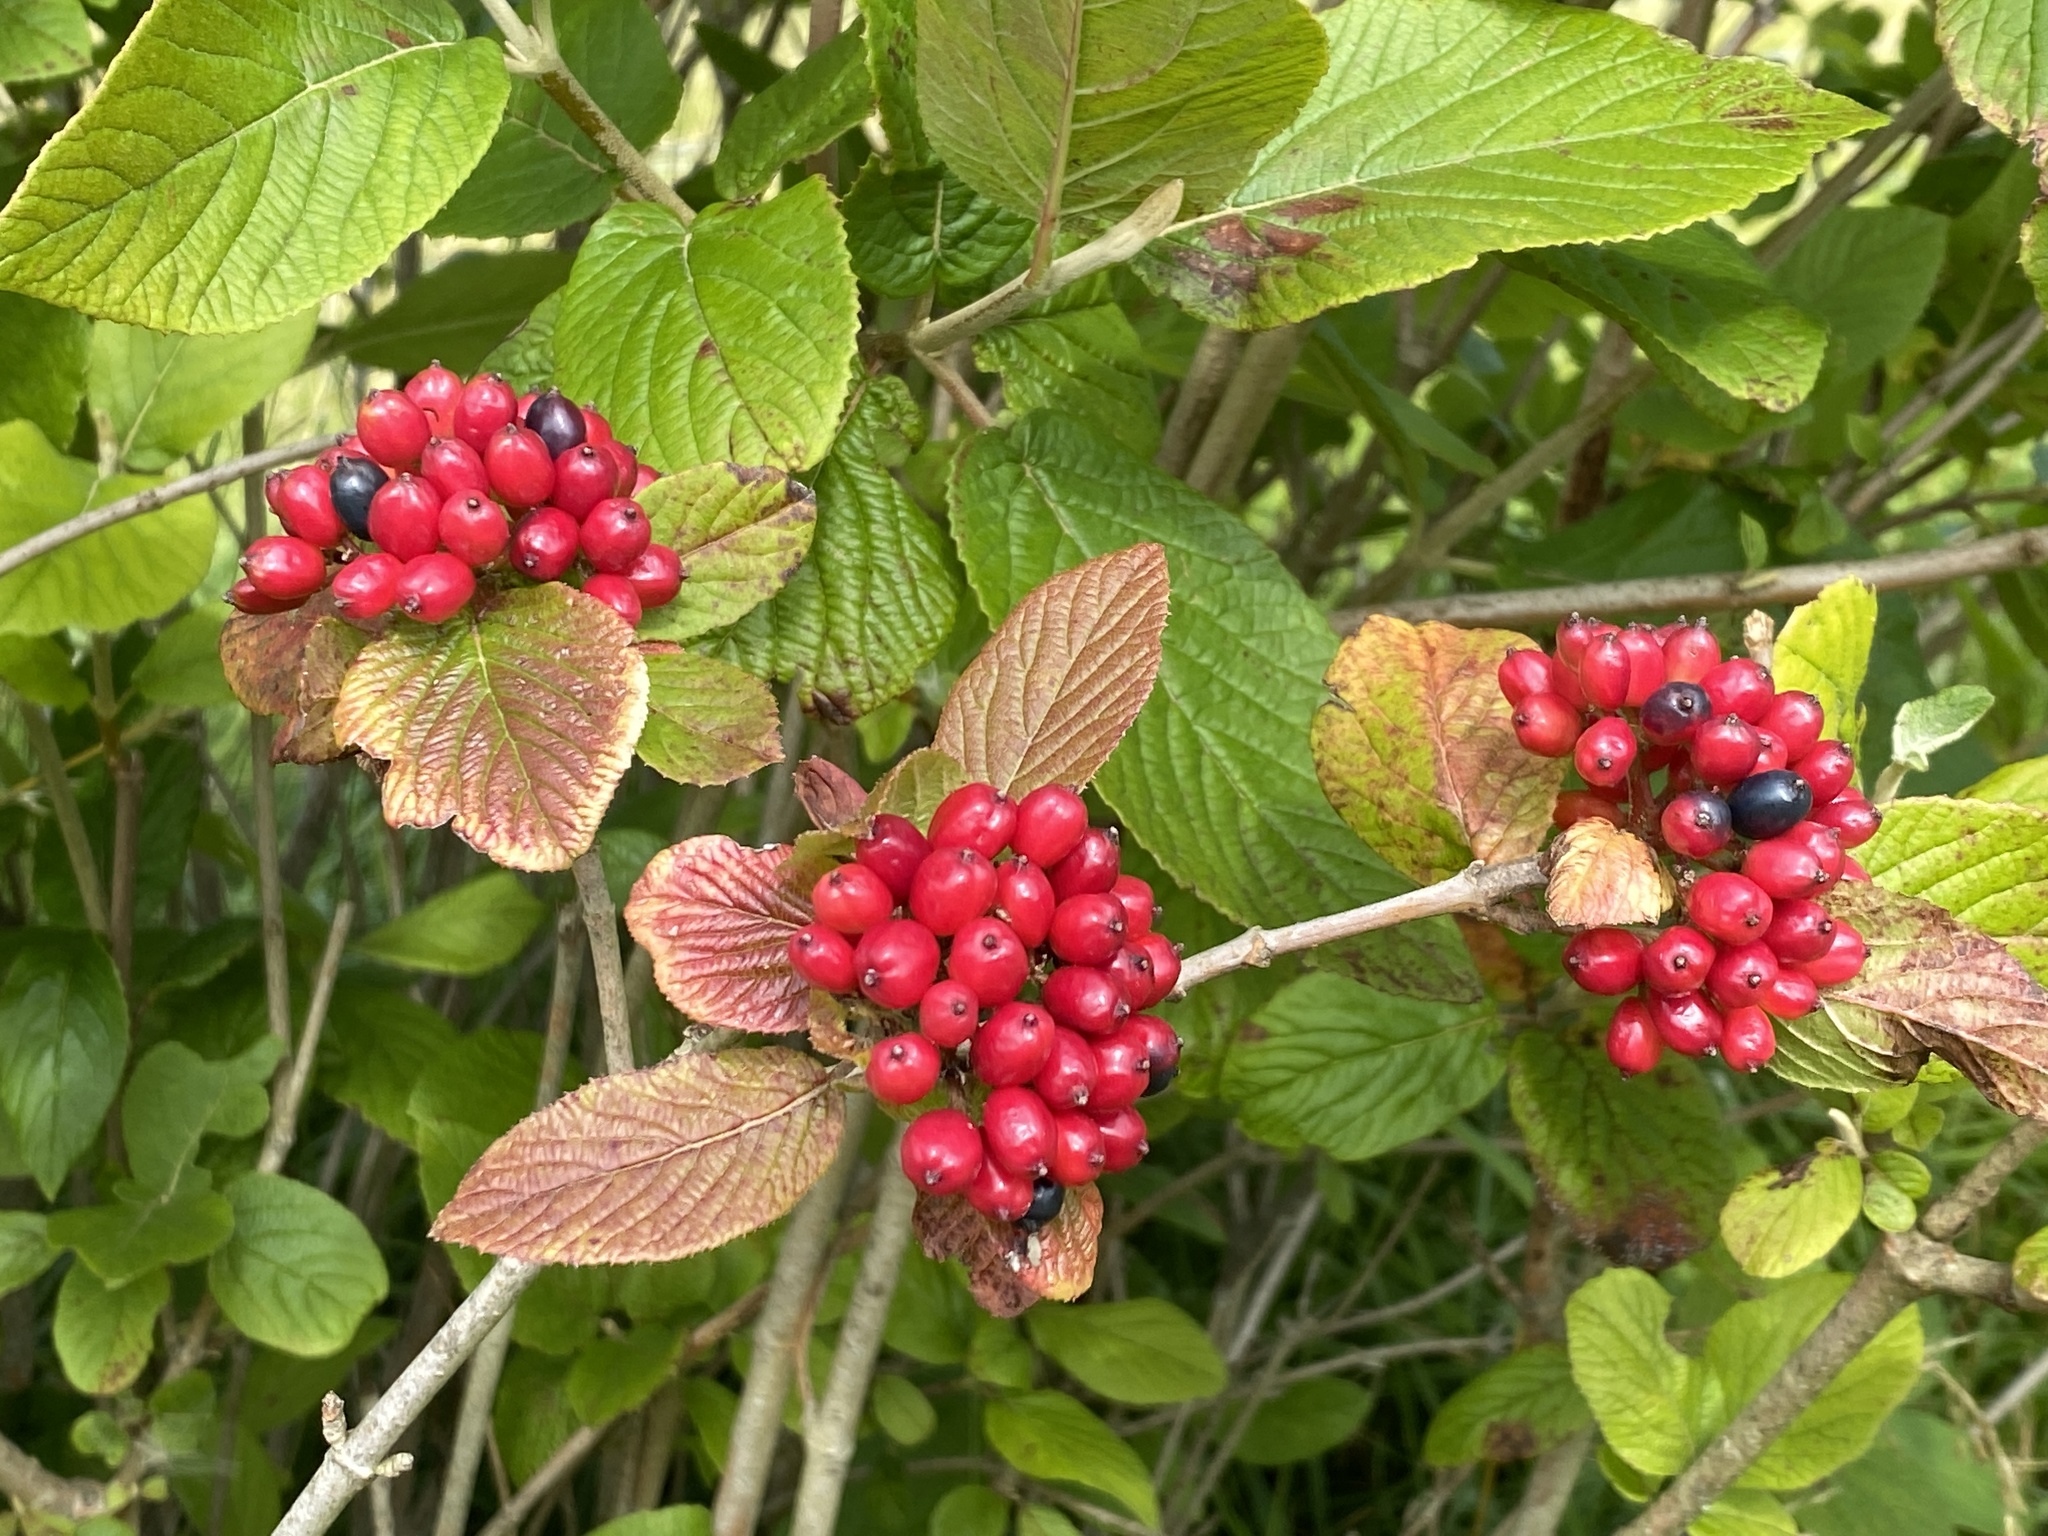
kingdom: Plantae
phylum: Tracheophyta
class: Magnoliopsida
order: Dipsacales
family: Viburnaceae
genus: Viburnum
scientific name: Viburnum lantana
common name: Wayfaring tree
